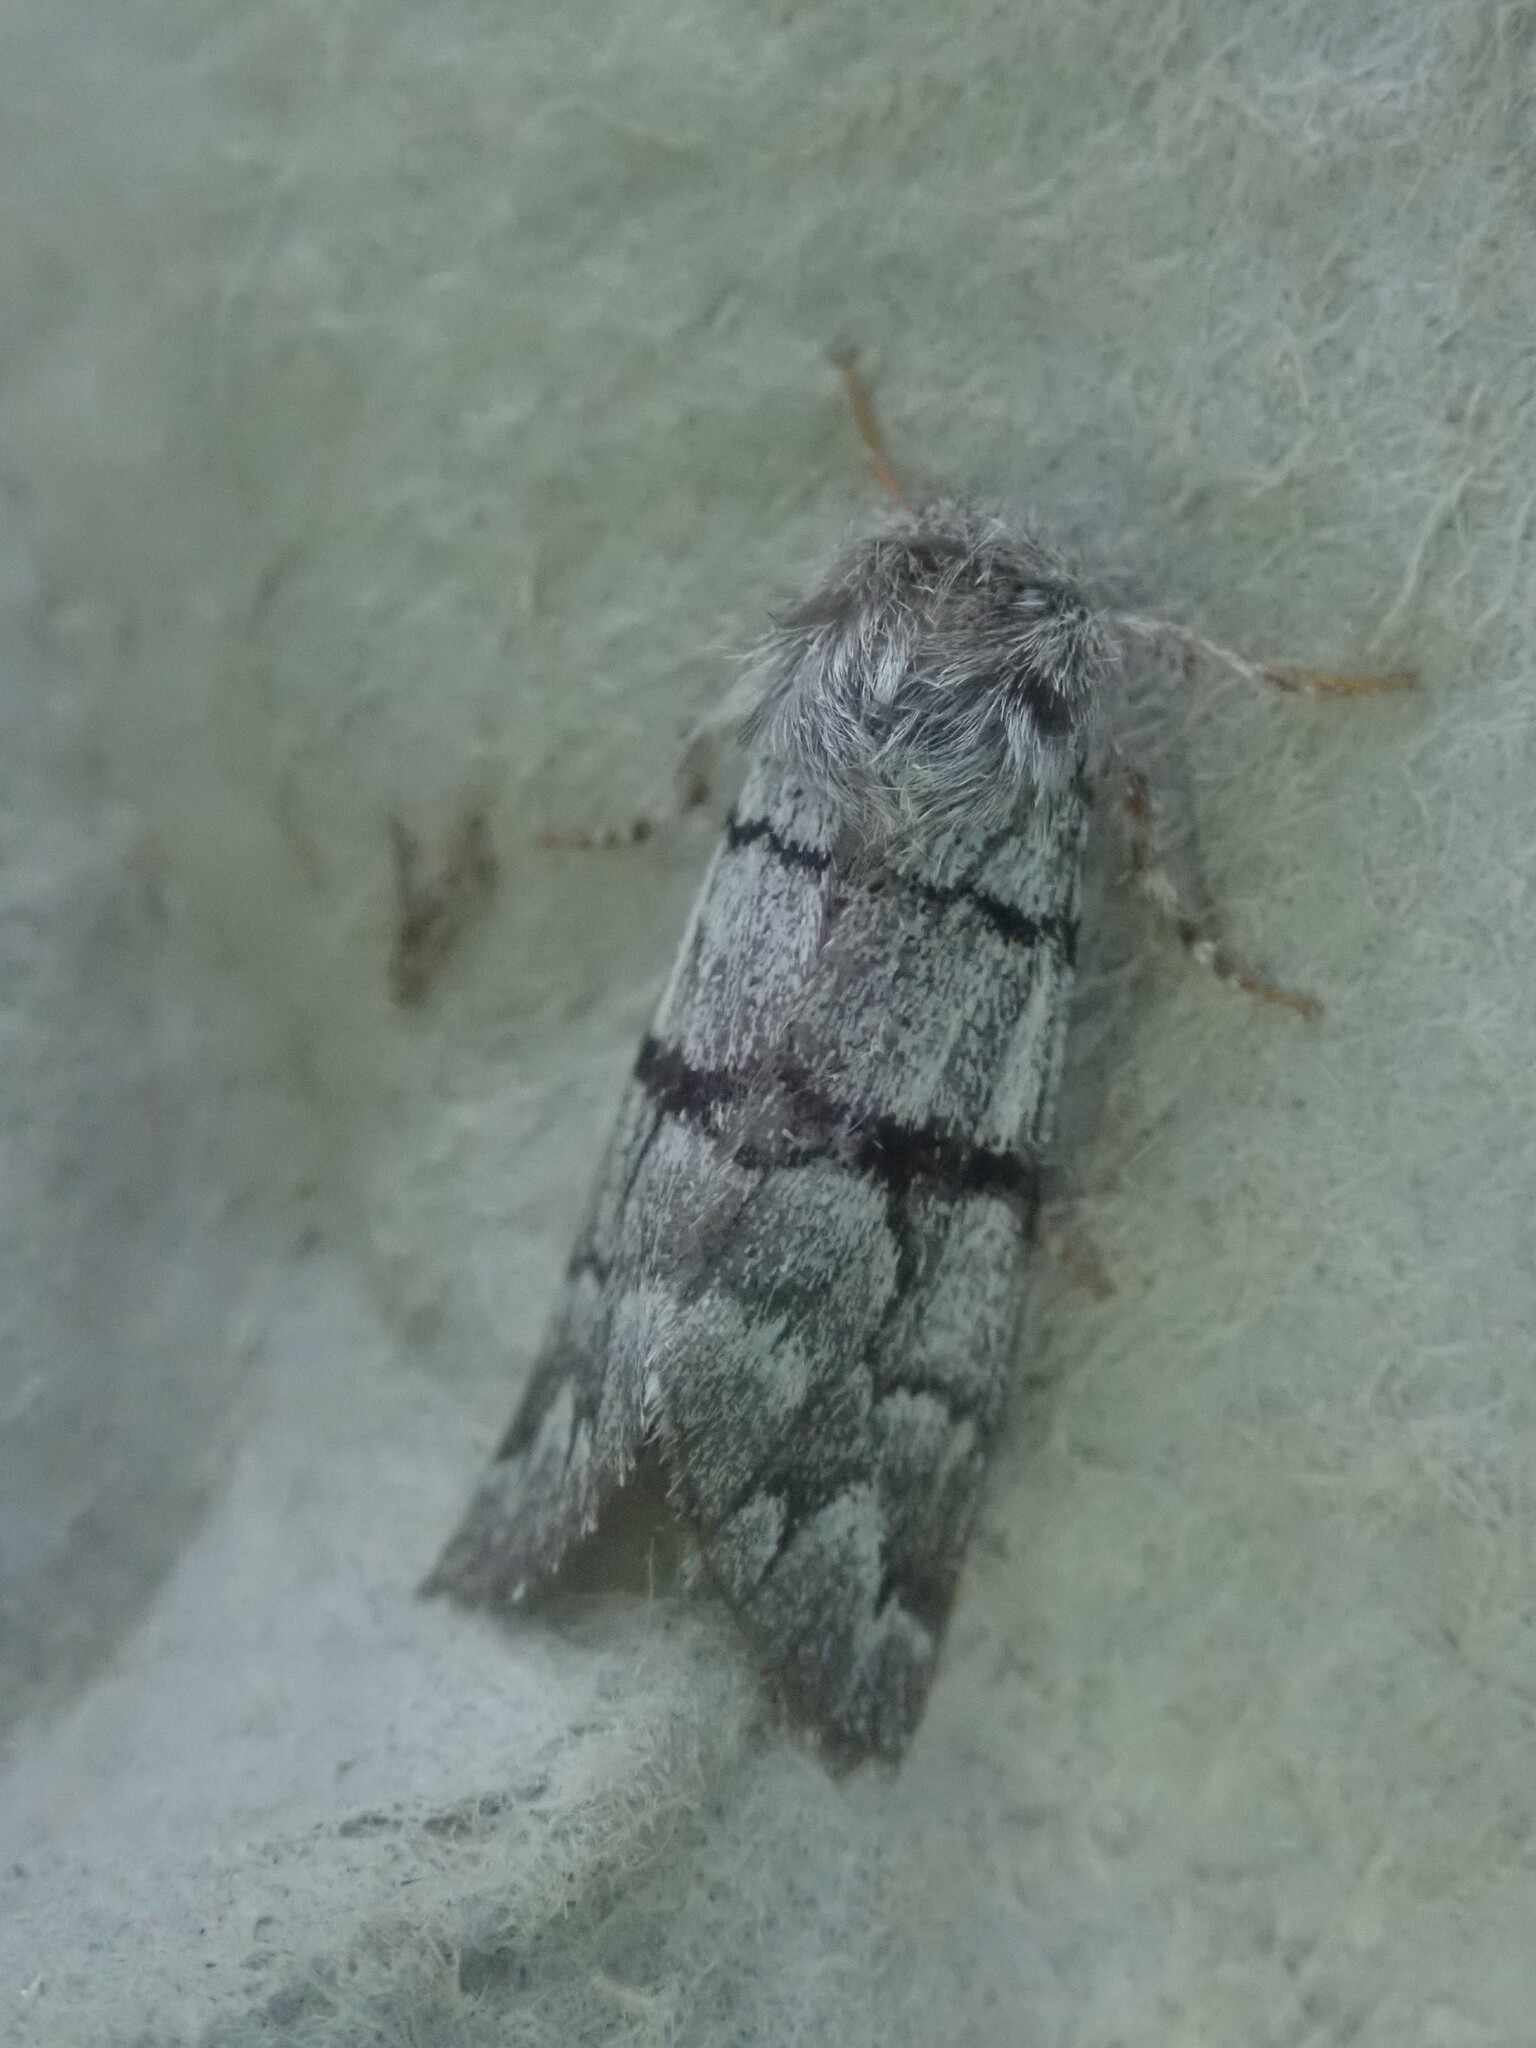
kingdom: Animalia
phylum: Arthropoda
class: Insecta
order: Lepidoptera
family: Noctuidae
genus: Panthea
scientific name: Panthea furcilla
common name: Eastern panthea moth
